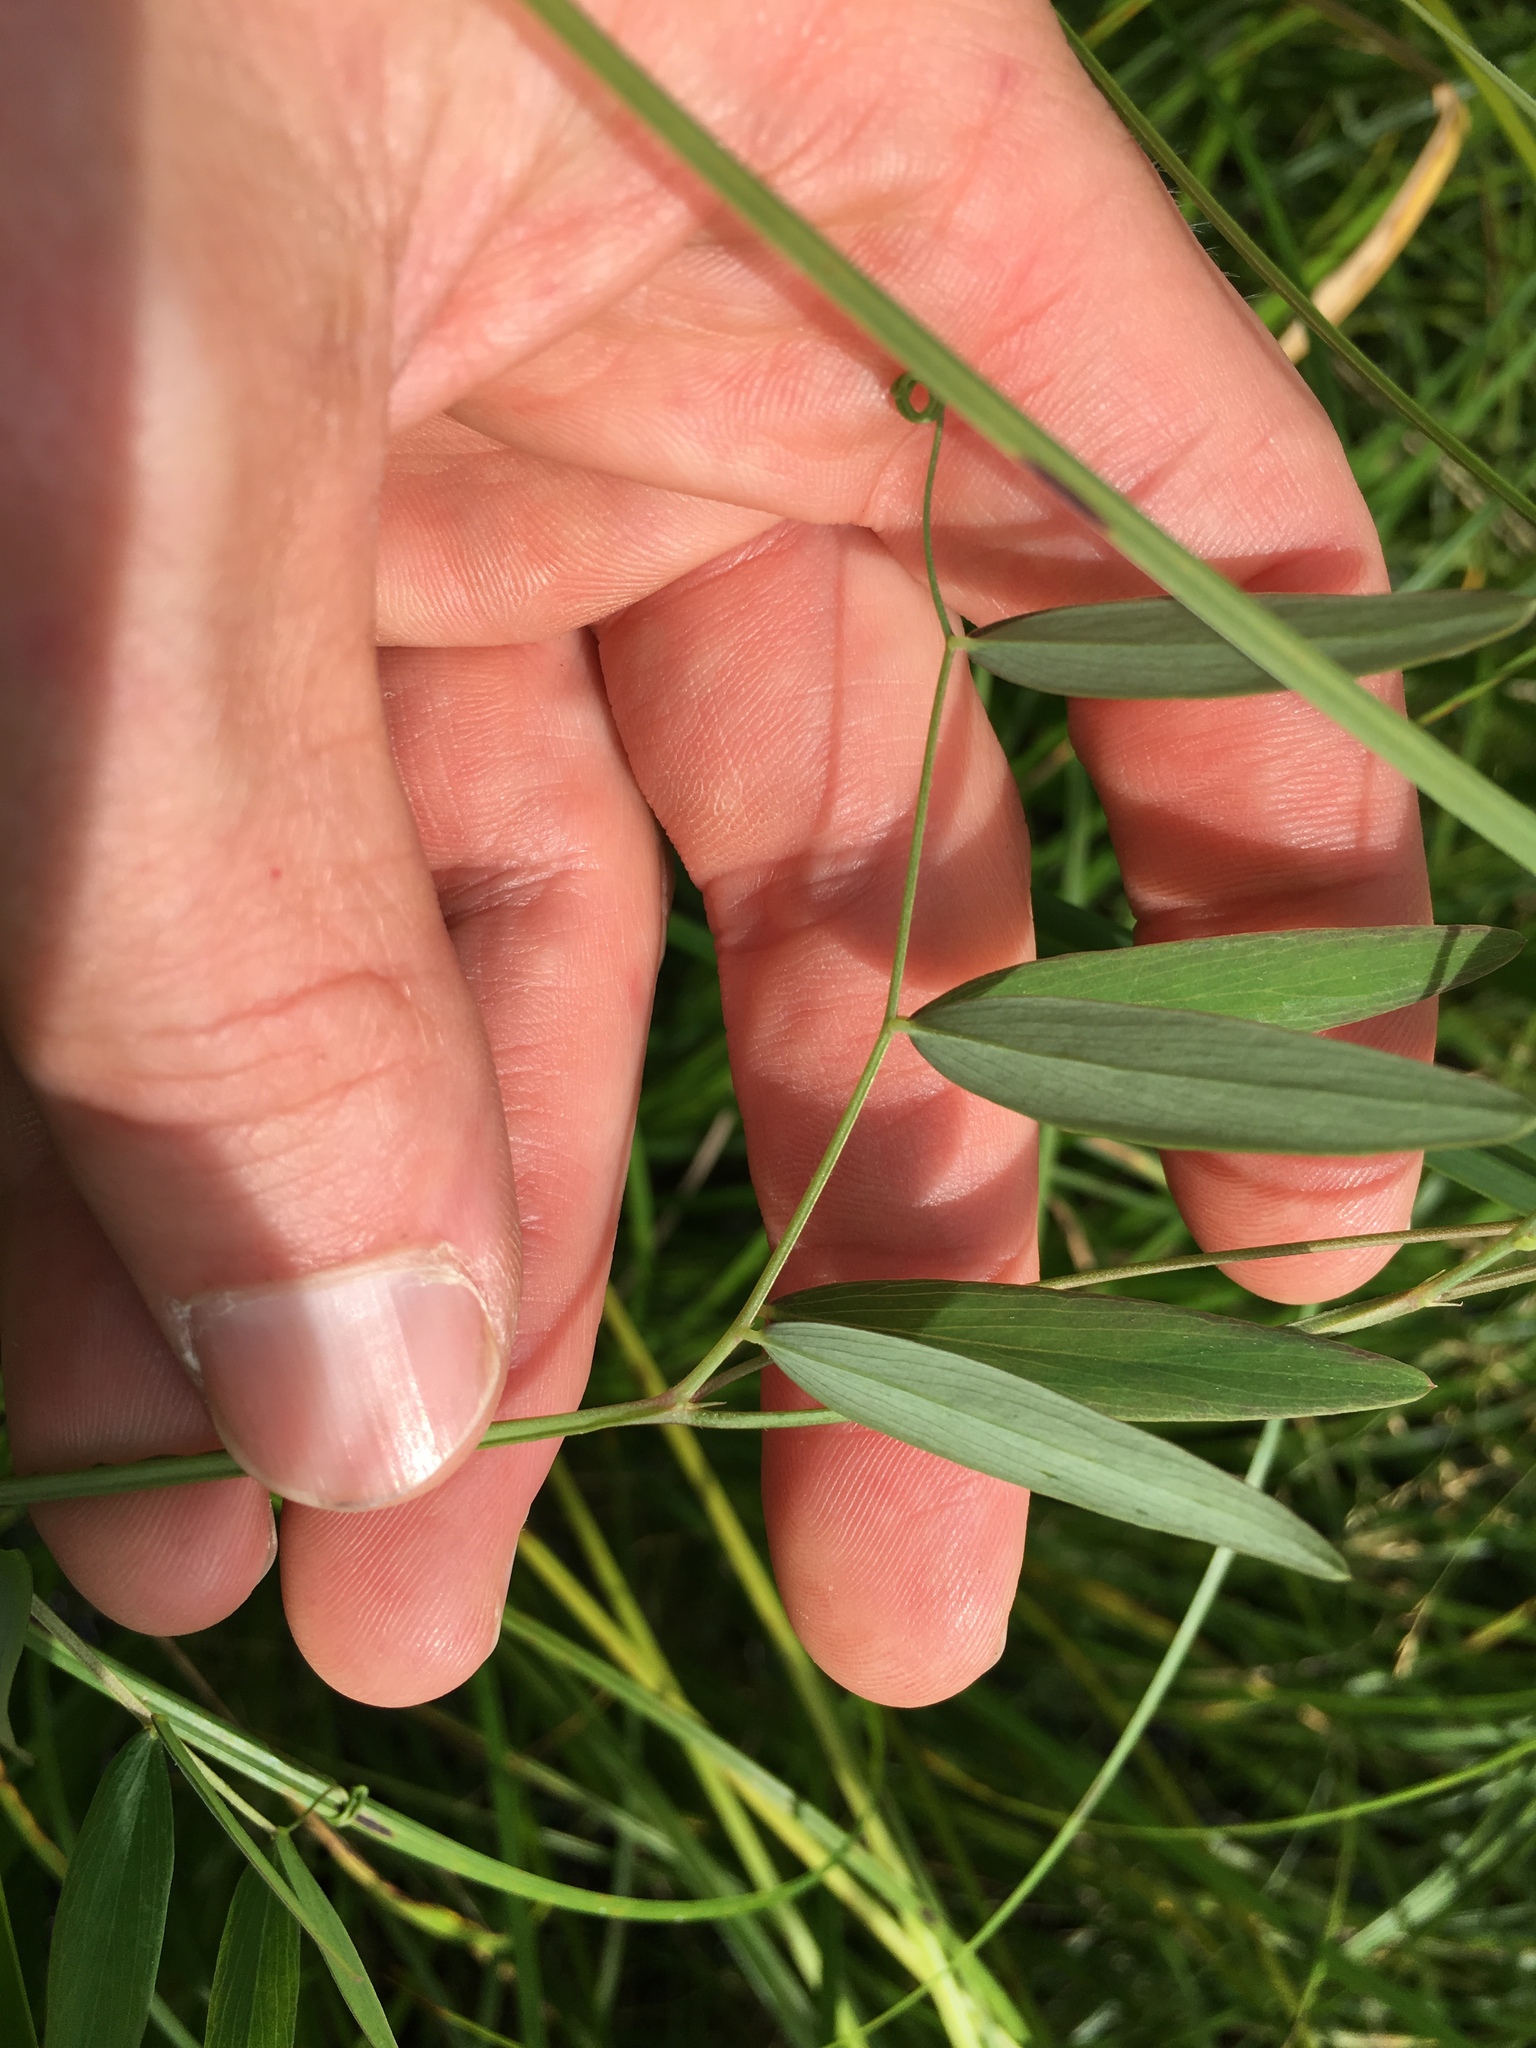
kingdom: Plantae
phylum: Tracheophyta
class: Magnoliopsida
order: Fabales
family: Fabaceae
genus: Lathyrus
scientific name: Lathyrus palustris
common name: Marsh pea
